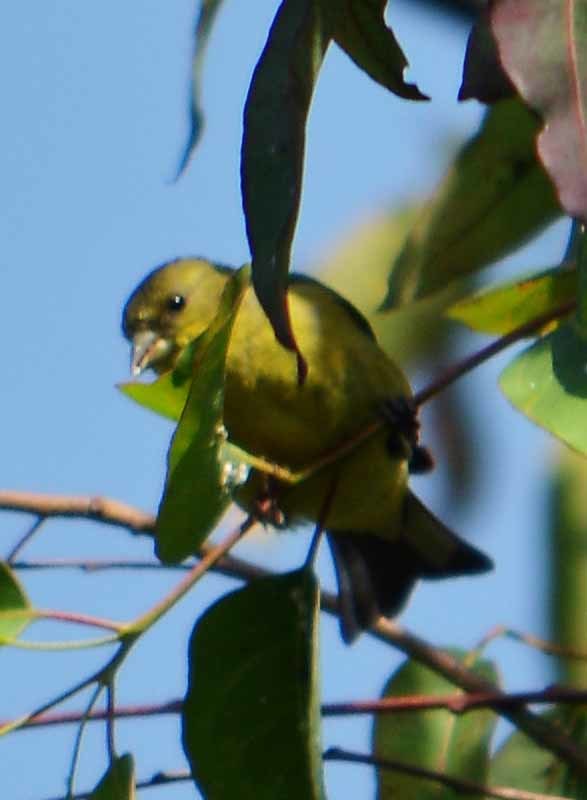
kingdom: Animalia
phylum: Chordata
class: Aves
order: Passeriformes
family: Fringillidae
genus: Spinus
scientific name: Spinus psaltria
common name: Lesser goldfinch
